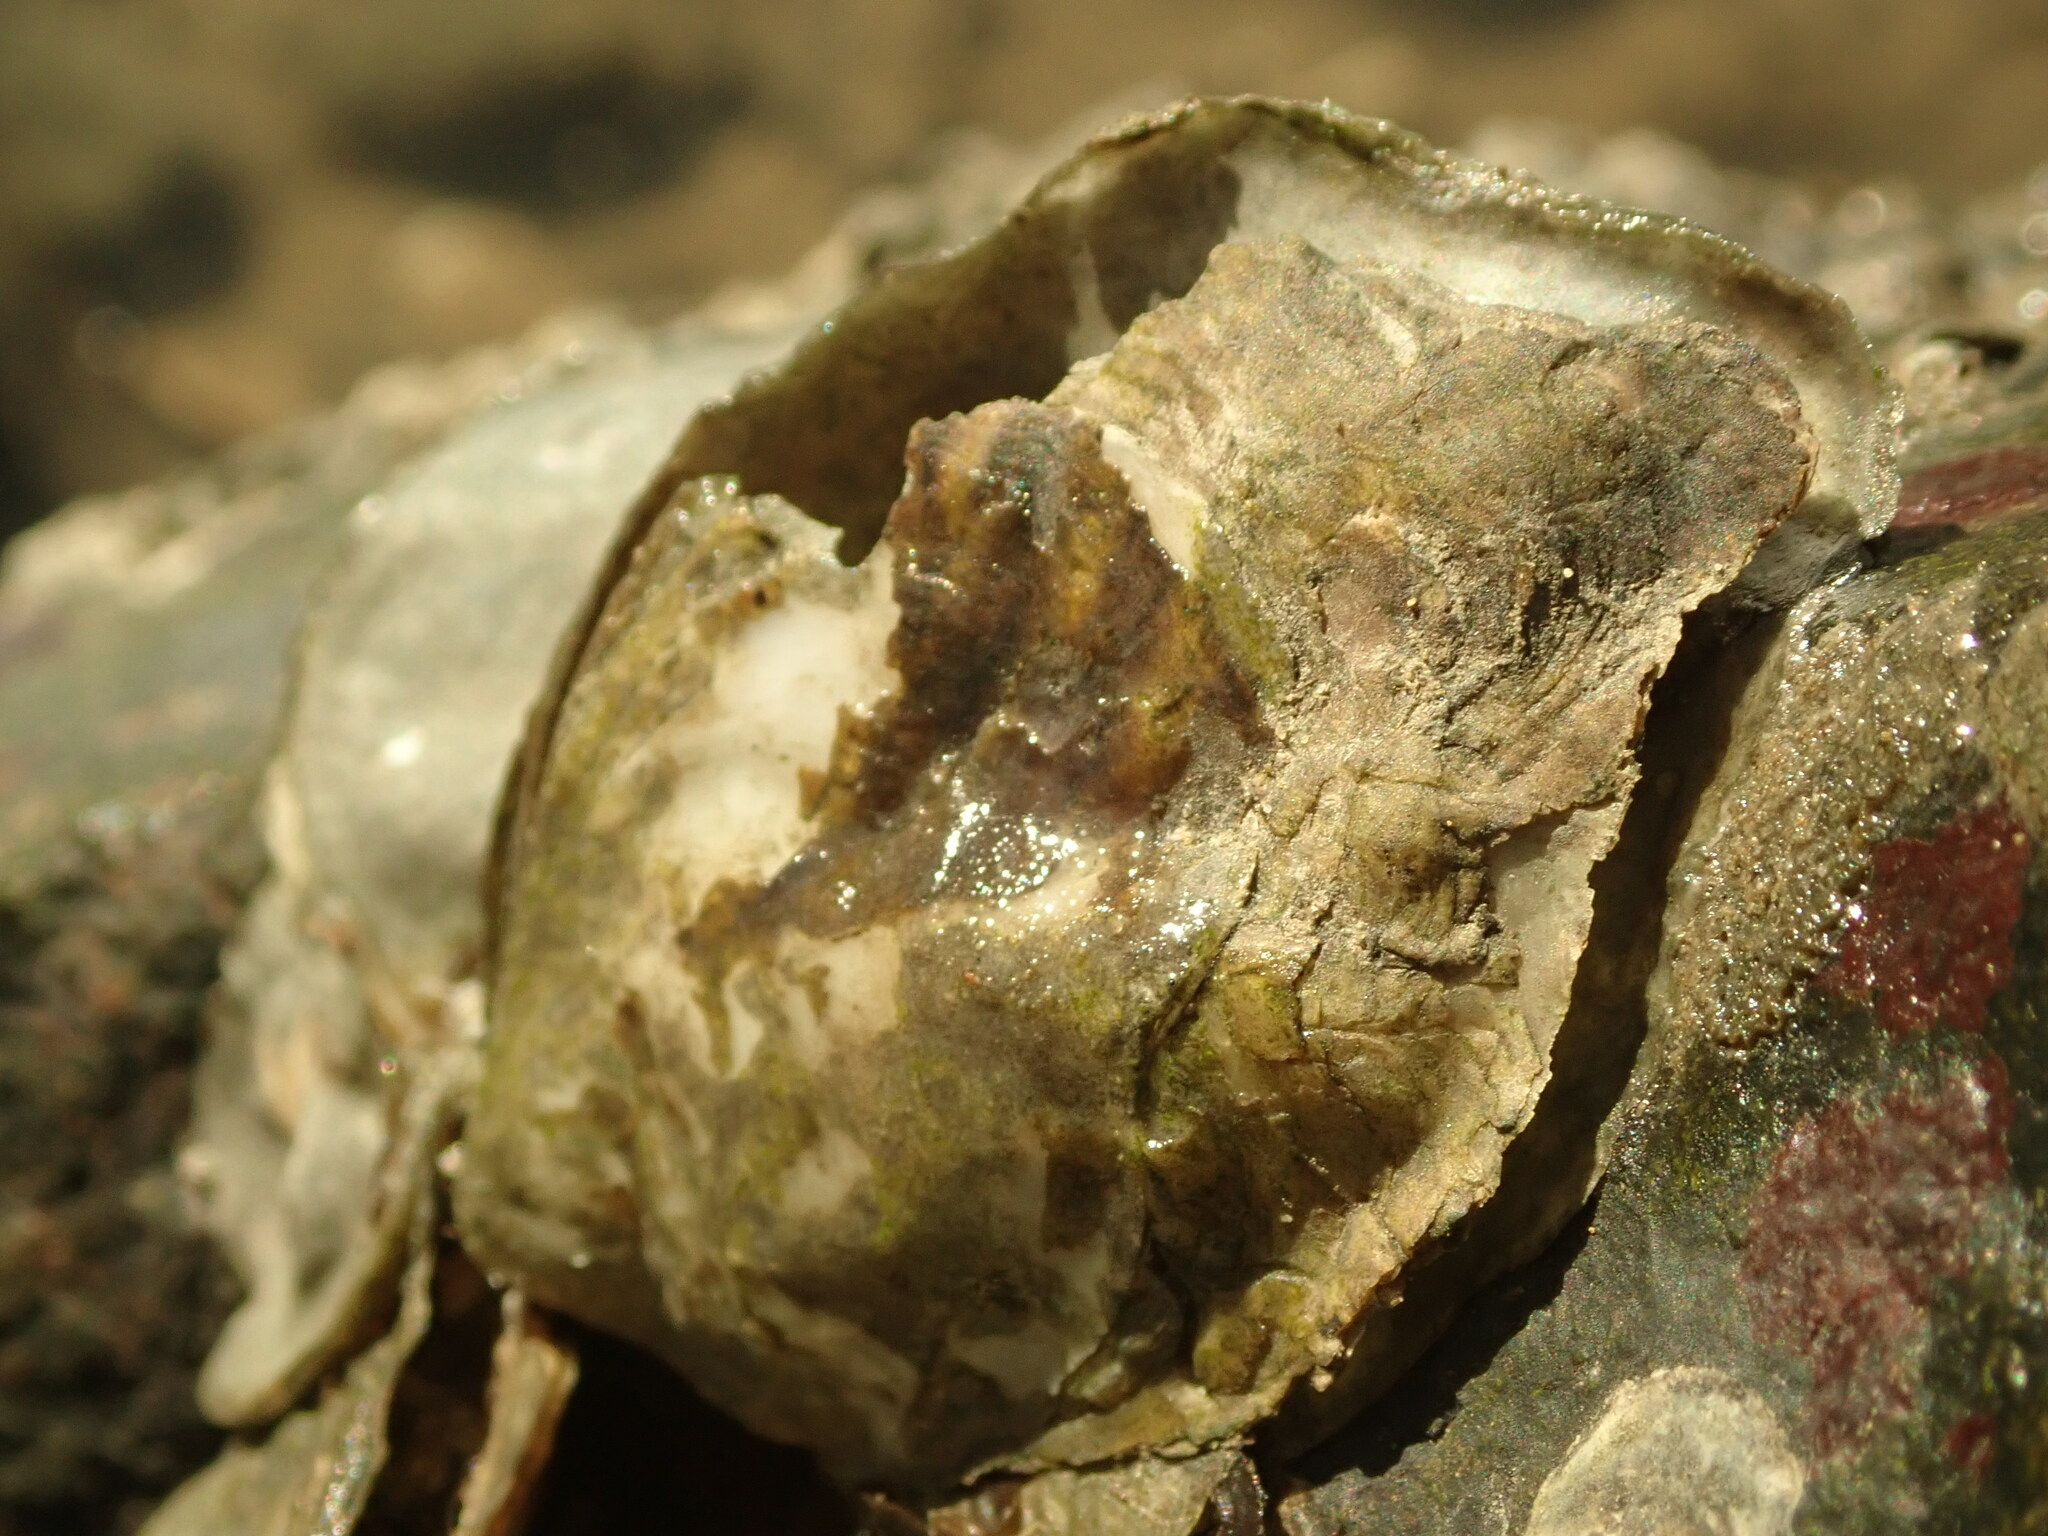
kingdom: Animalia
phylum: Mollusca
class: Bivalvia
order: Ostreida
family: Ostreidae
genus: Ostrea
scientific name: Ostrea lurida
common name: Olympia flat oyster
